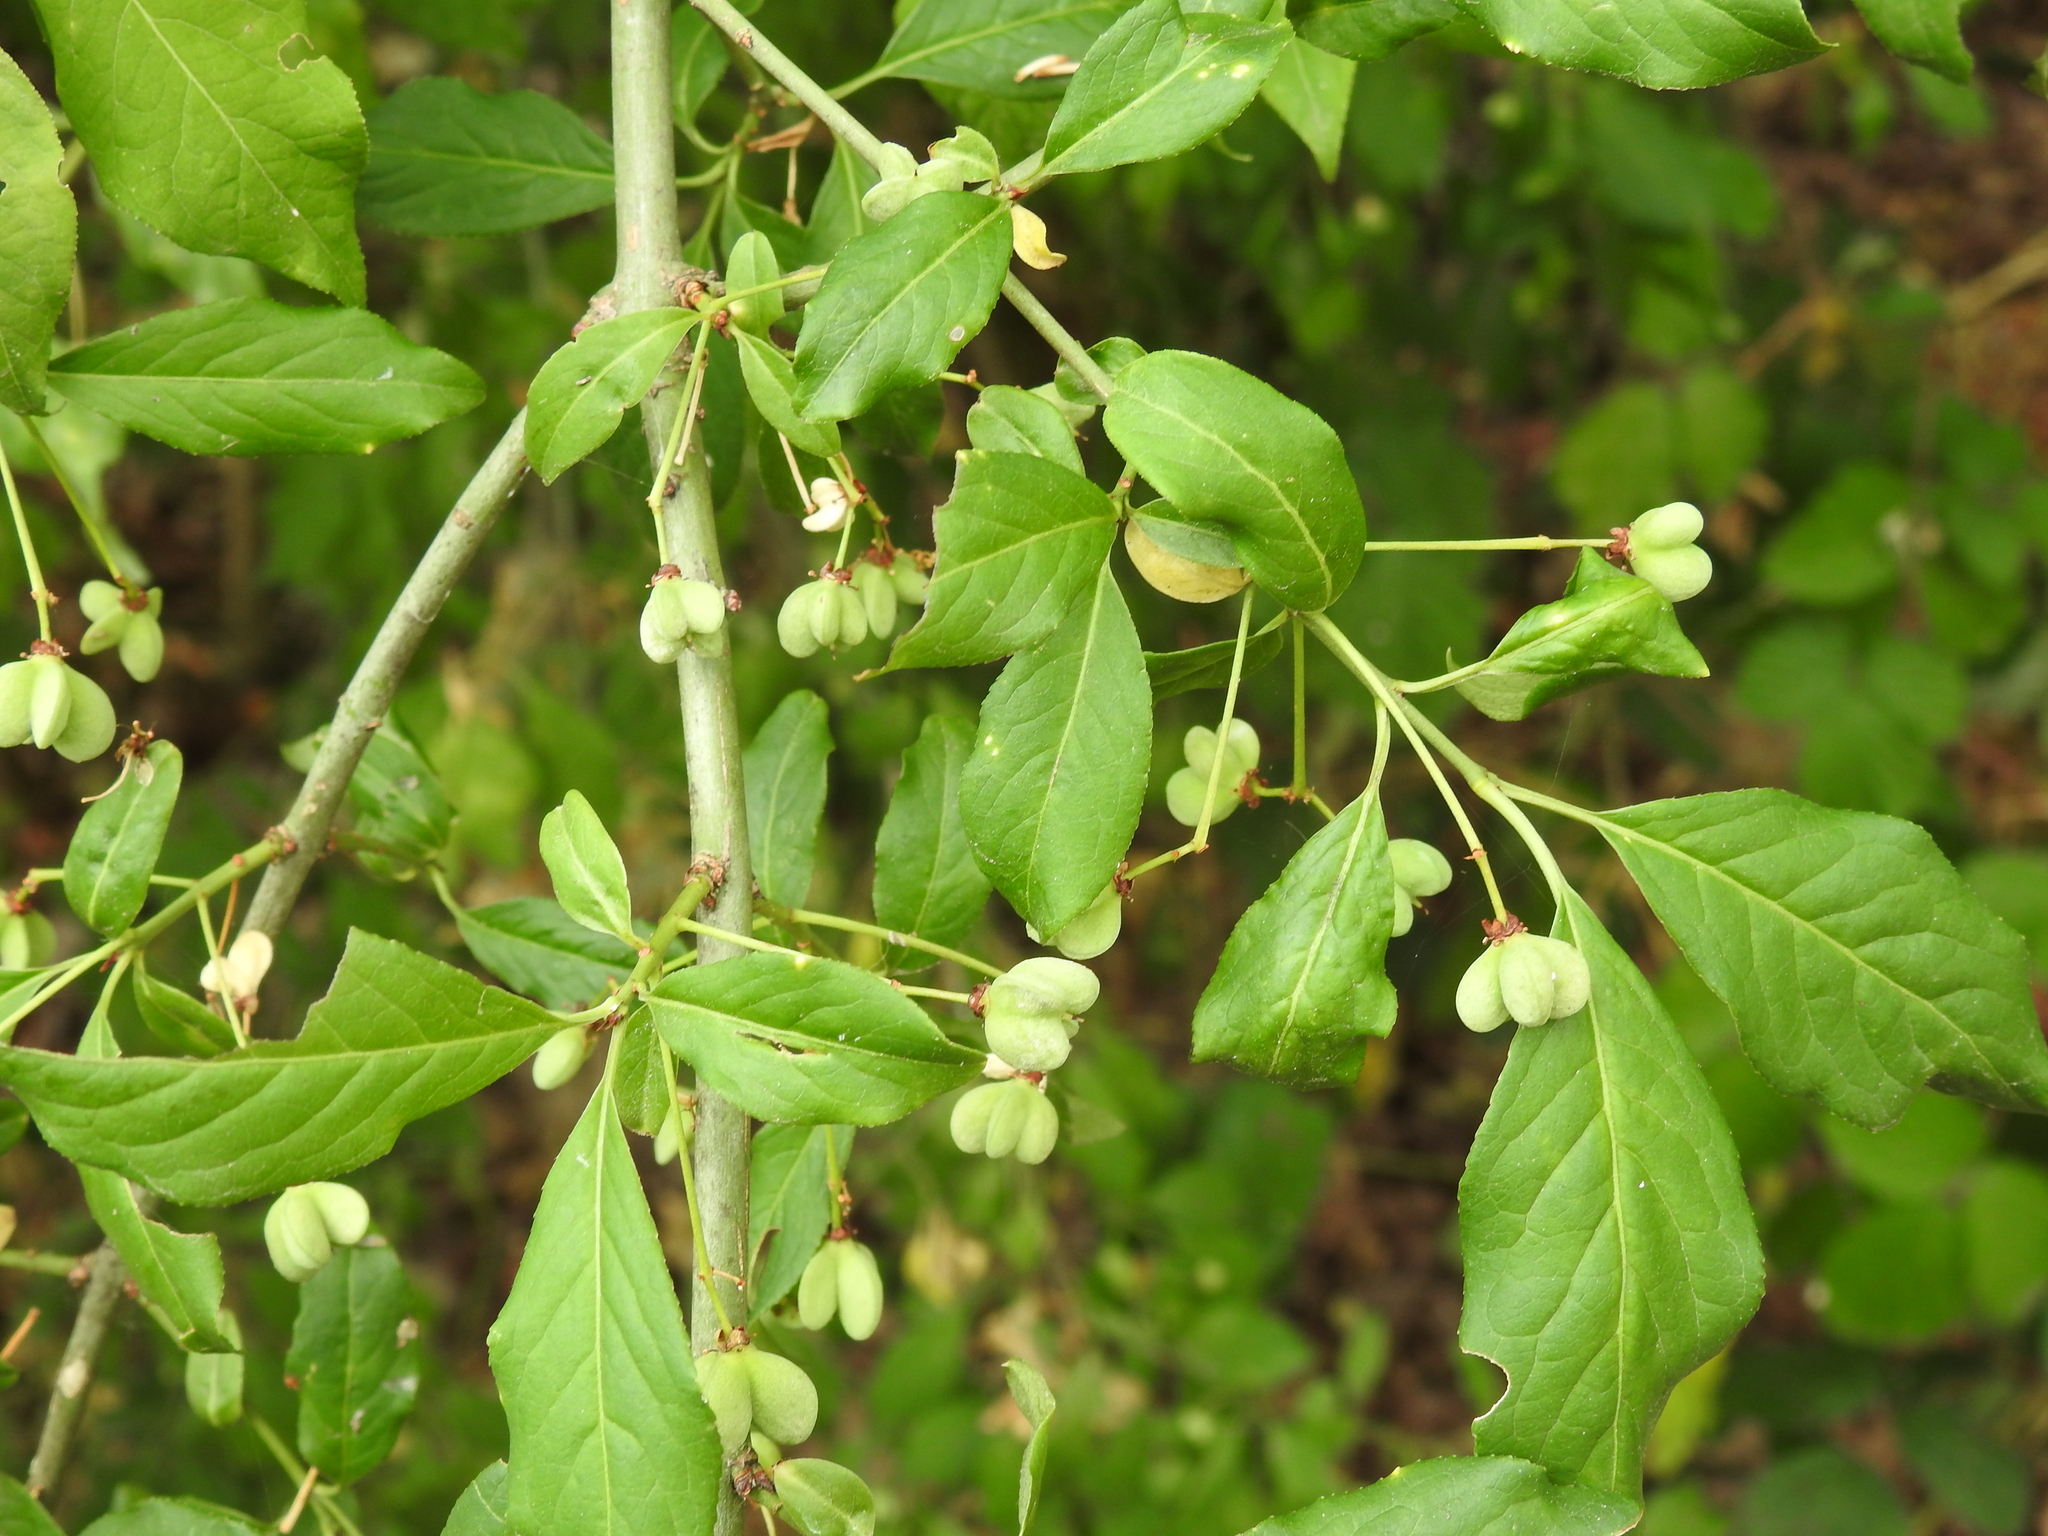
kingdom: Plantae
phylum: Tracheophyta
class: Magnoliopsida
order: Celastrales
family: Celastraceae
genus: Euonymus
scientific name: Euonymus europaeus
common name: Spindle
